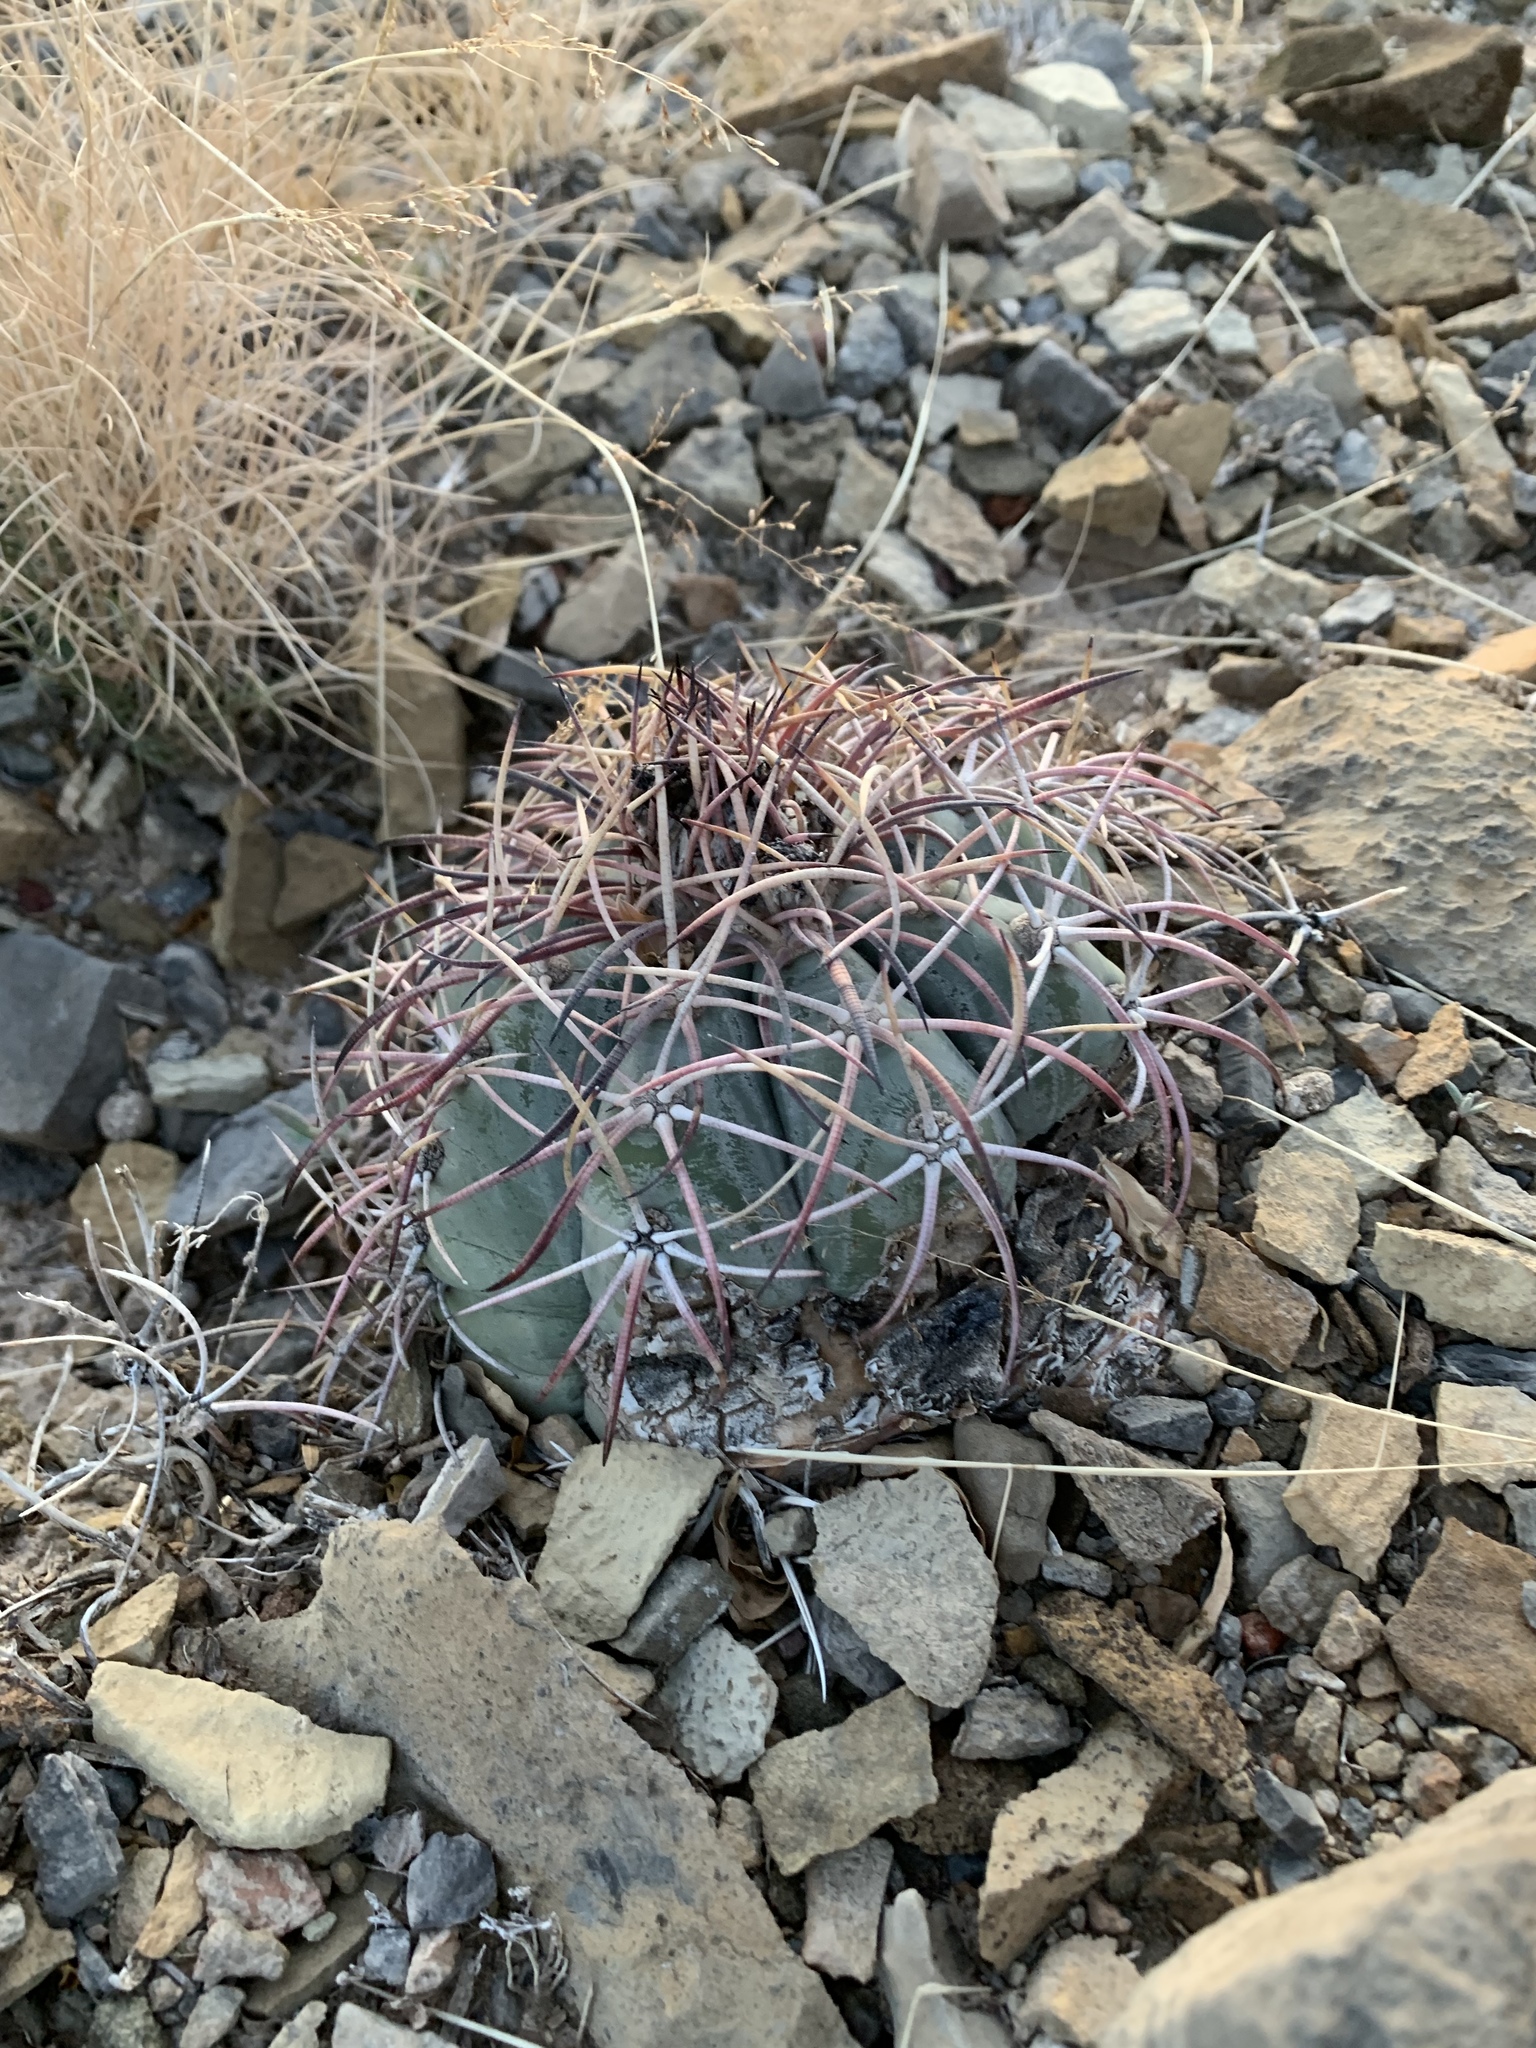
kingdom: Plantae
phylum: Tracheophyta
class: Magnoliopsida
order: Caryophyllales
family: Cactaceae
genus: Echinocactus
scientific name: Echinocactus horizonthalonius
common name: Devilshead
